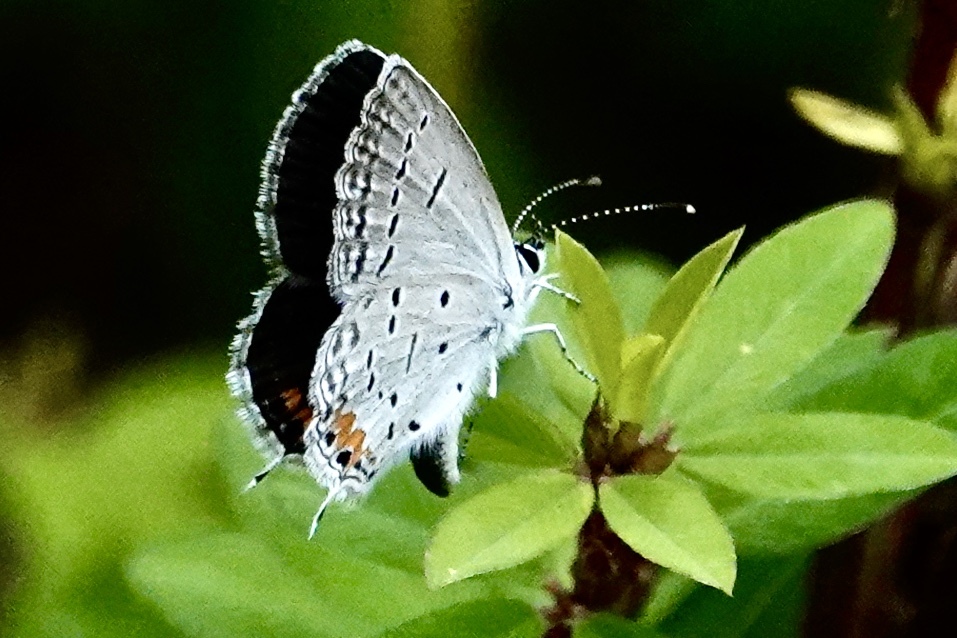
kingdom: Animalia
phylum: Arthropoda
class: Insecta
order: Lepidoptera
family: Lycaenidae
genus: Elkalyce
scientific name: Elkalyce comyntas
